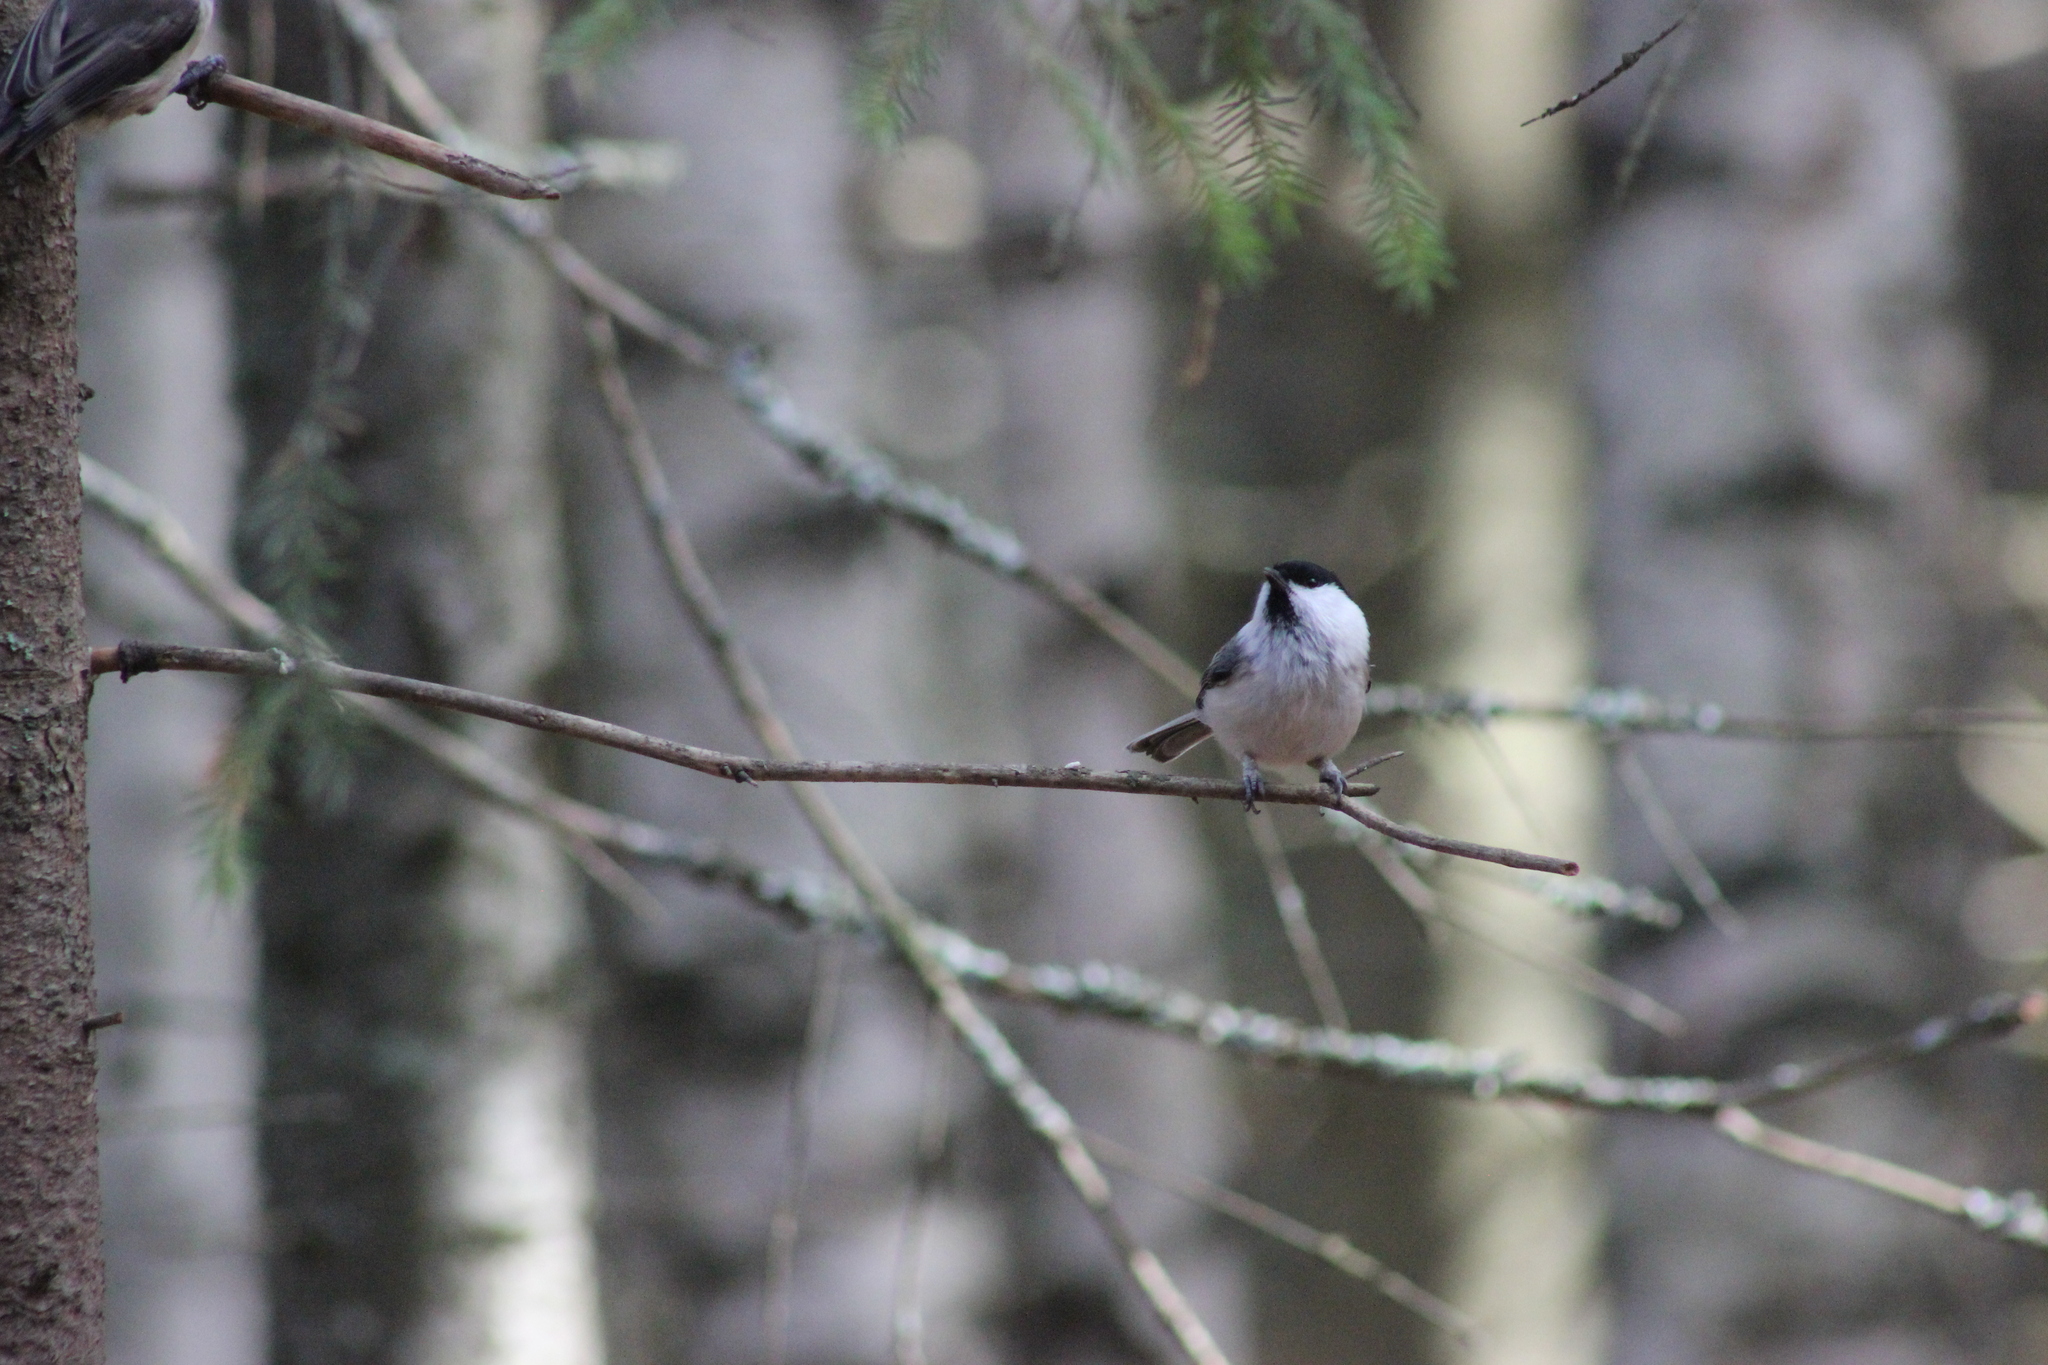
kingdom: Animalia
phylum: Chordata
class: Aves
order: Passeriformes
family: Paridae
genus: Poecile
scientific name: Poecile montanus
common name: Willow tit
